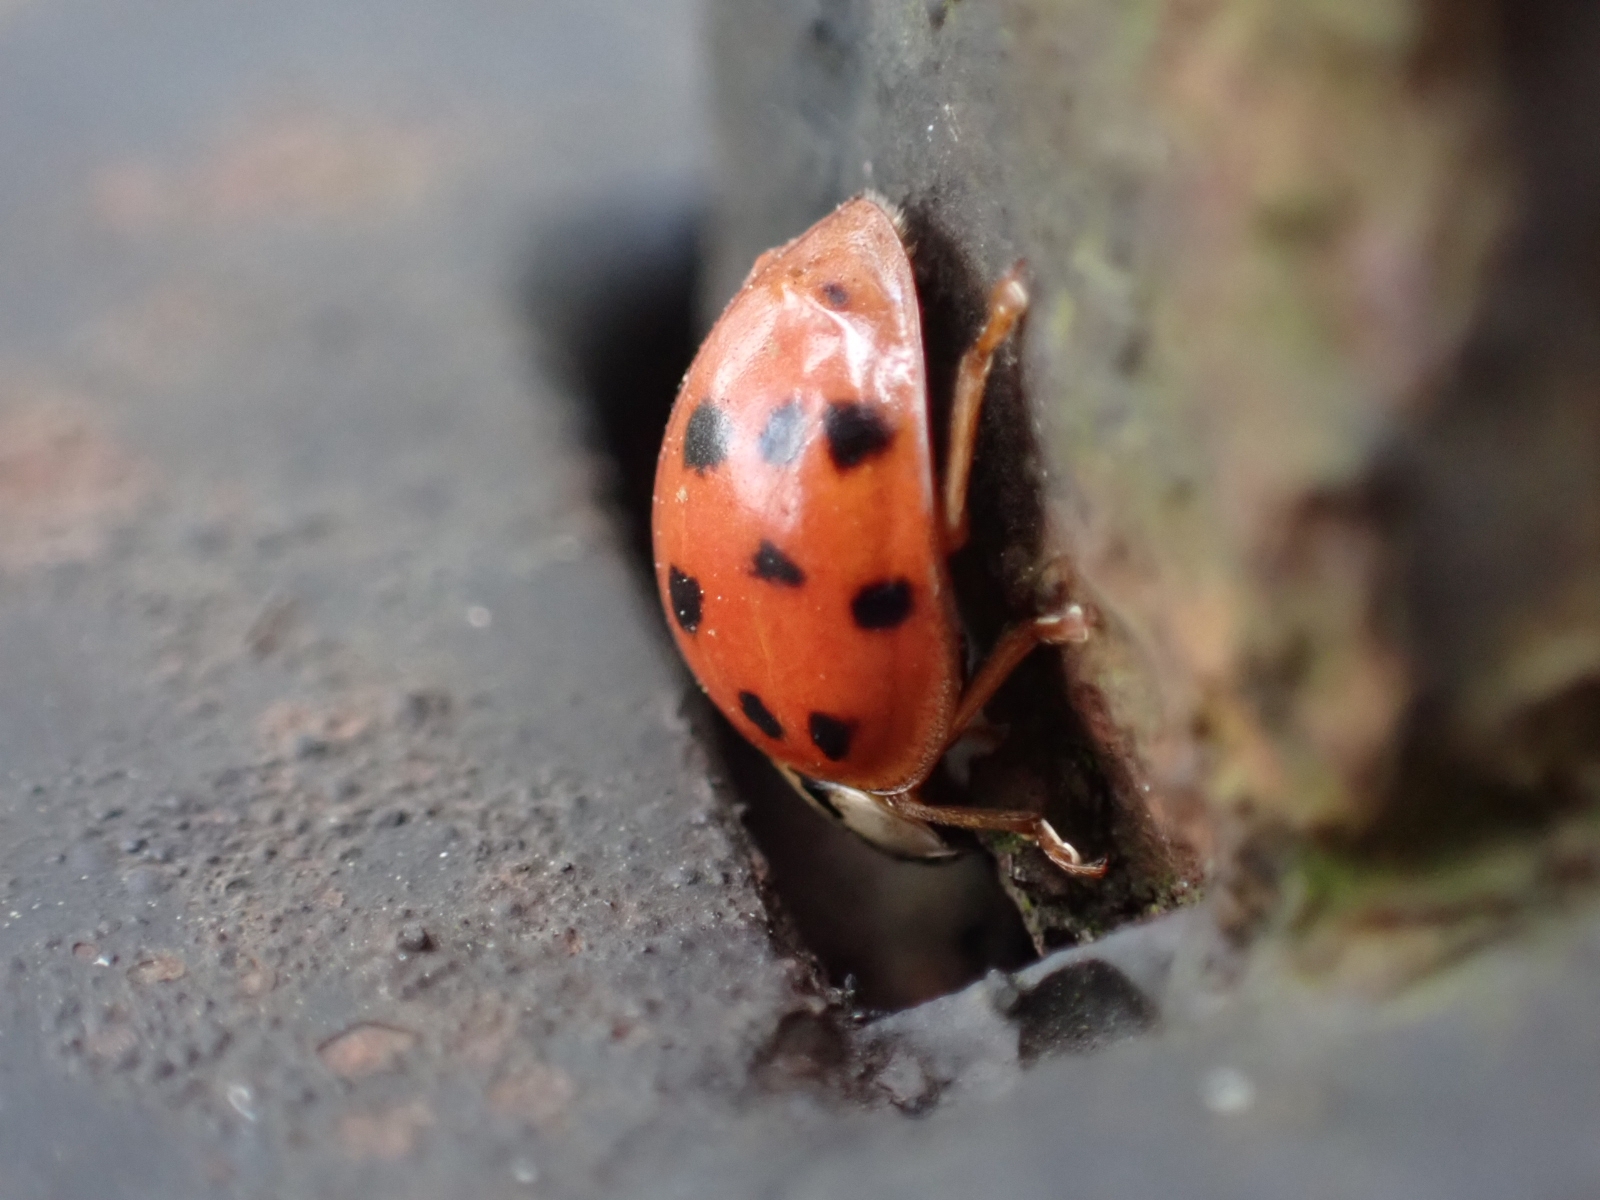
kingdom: Animalia
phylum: Arthropoda
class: Insecta
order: Coleoptera
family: Coccinellidae
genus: Harmonia
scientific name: Harmonia axyridis
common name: Harlequin ladybird
